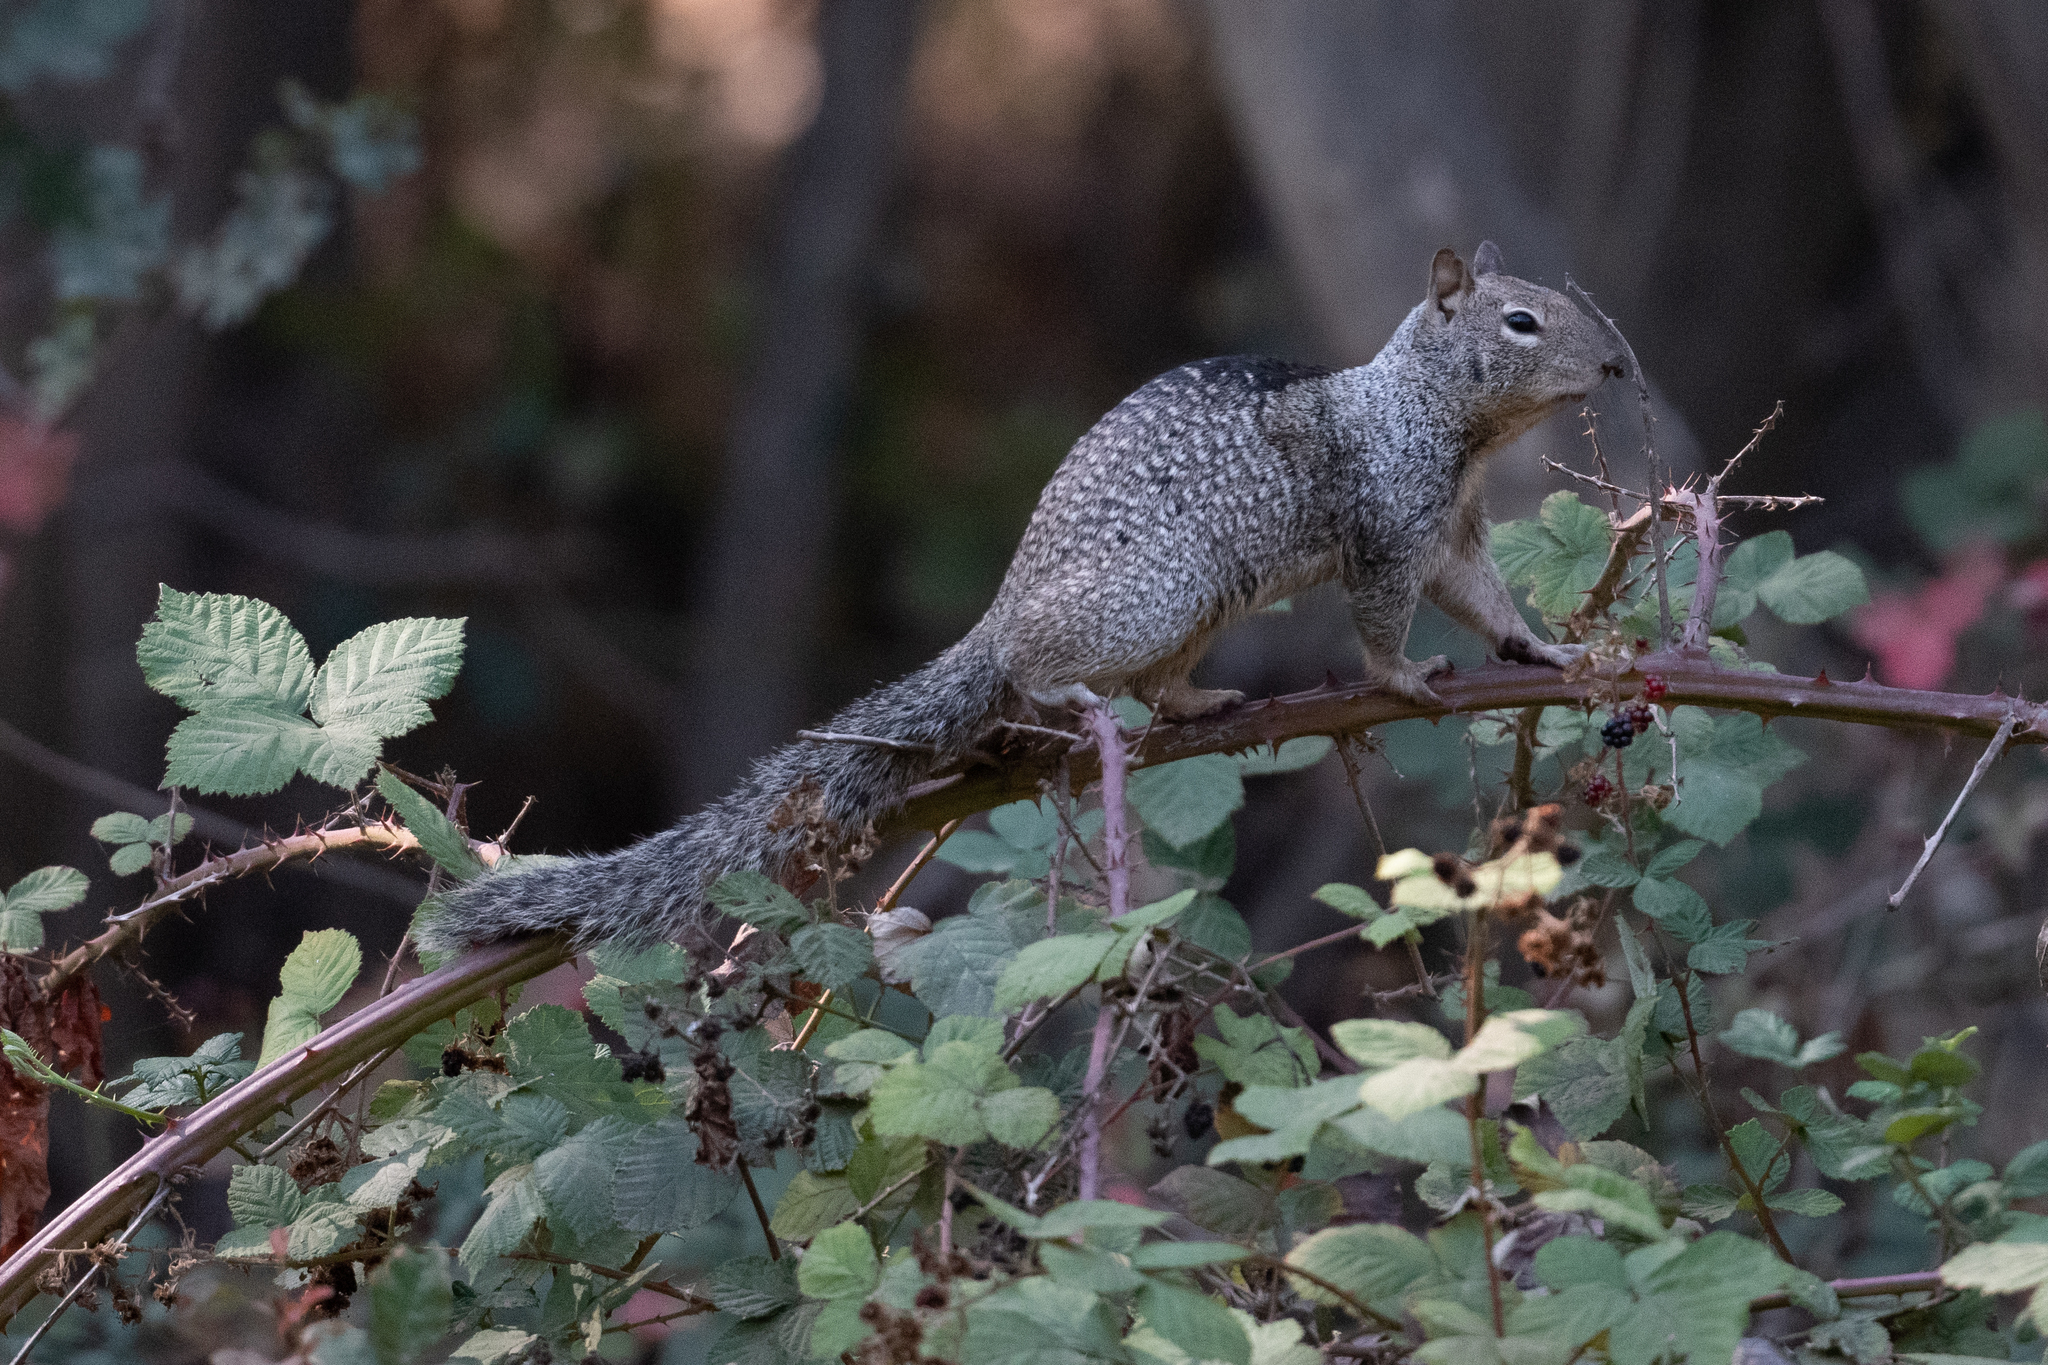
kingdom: Animalia
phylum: Chordata
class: Mammalia
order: Rodentia
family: Sciuridae
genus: Otospermophilus
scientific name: Otospermophilus beecheyi
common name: California ground squirrel
